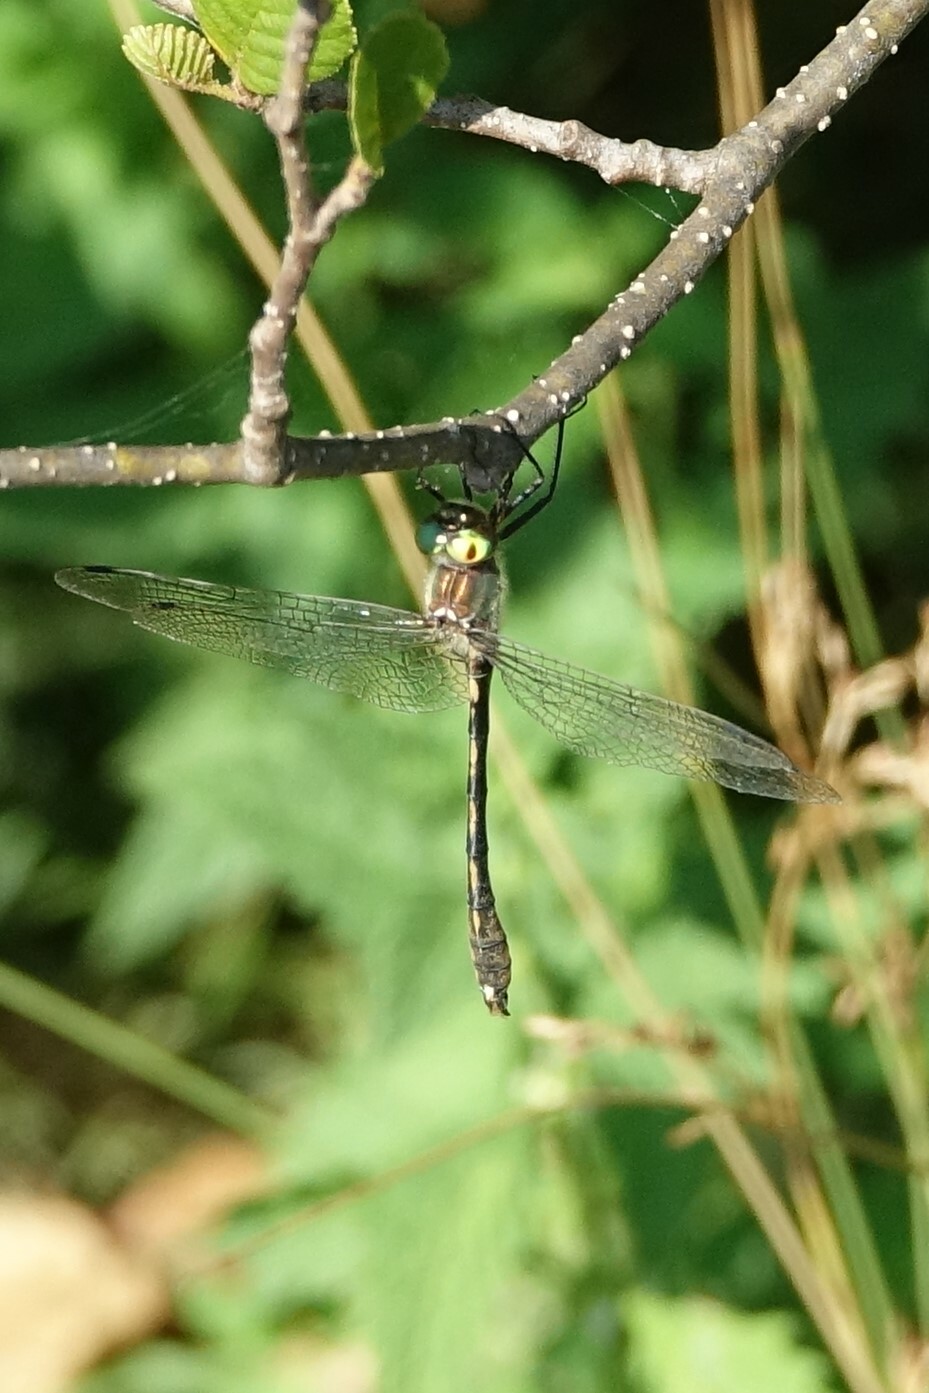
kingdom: Animalia
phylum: Arthropoda
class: Insecta
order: Odonata
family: Corduliidae
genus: Oxygastra
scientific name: Oxygastra curtisii
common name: Orange-spotted emerald
